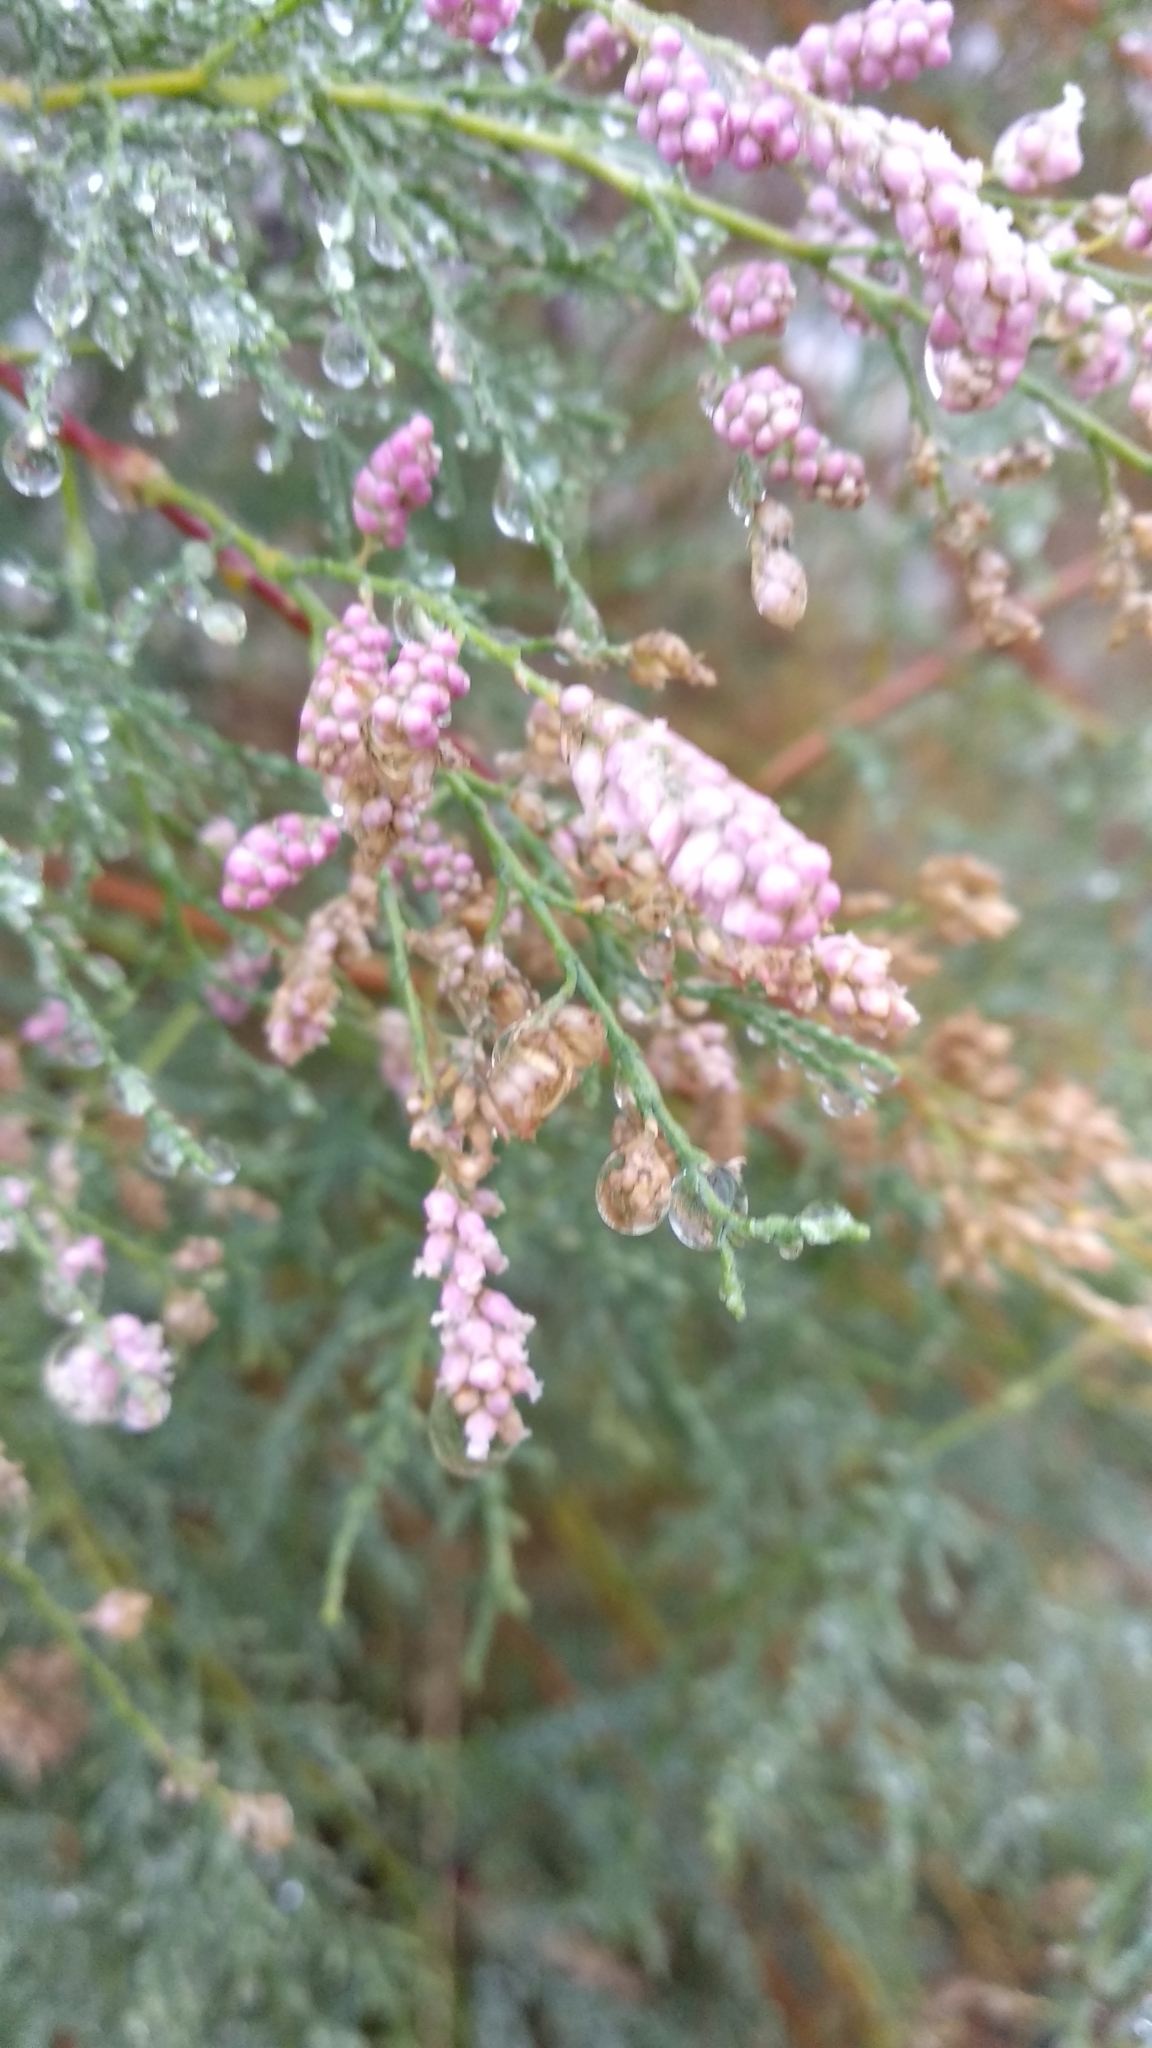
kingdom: Plantae
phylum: Tracheophyta
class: Magnoliopsida
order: Caryophyllales
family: Tamaricaceae
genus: Tamarix
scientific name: Tamarix ramosissima
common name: Pink tamarisk
